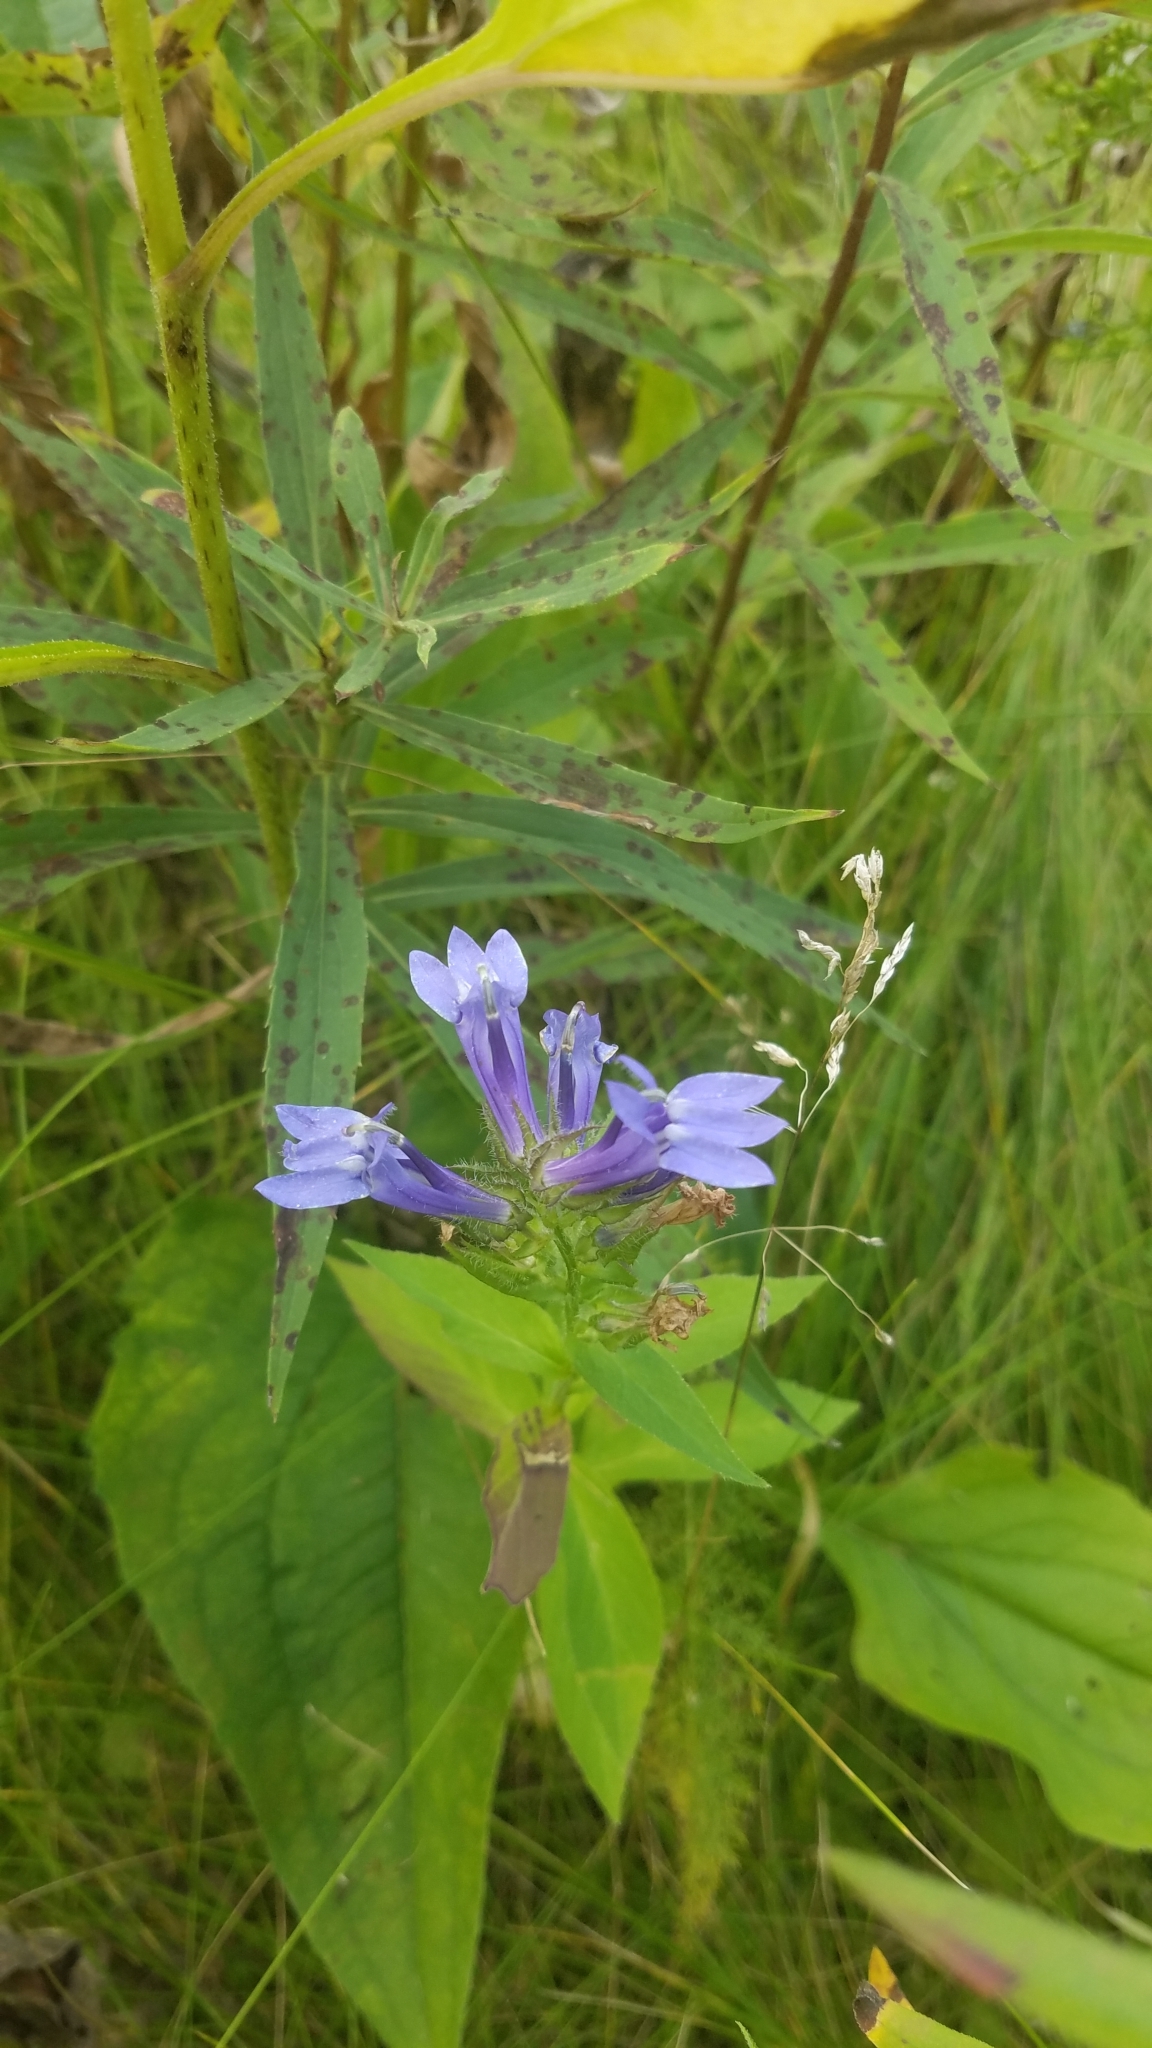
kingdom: Plantae
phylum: Tracheophyta
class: Magnoliopsida
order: Asterales
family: Campanulaceae
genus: Lobelia
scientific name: Lobelia siphilitica
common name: Great lobelia
